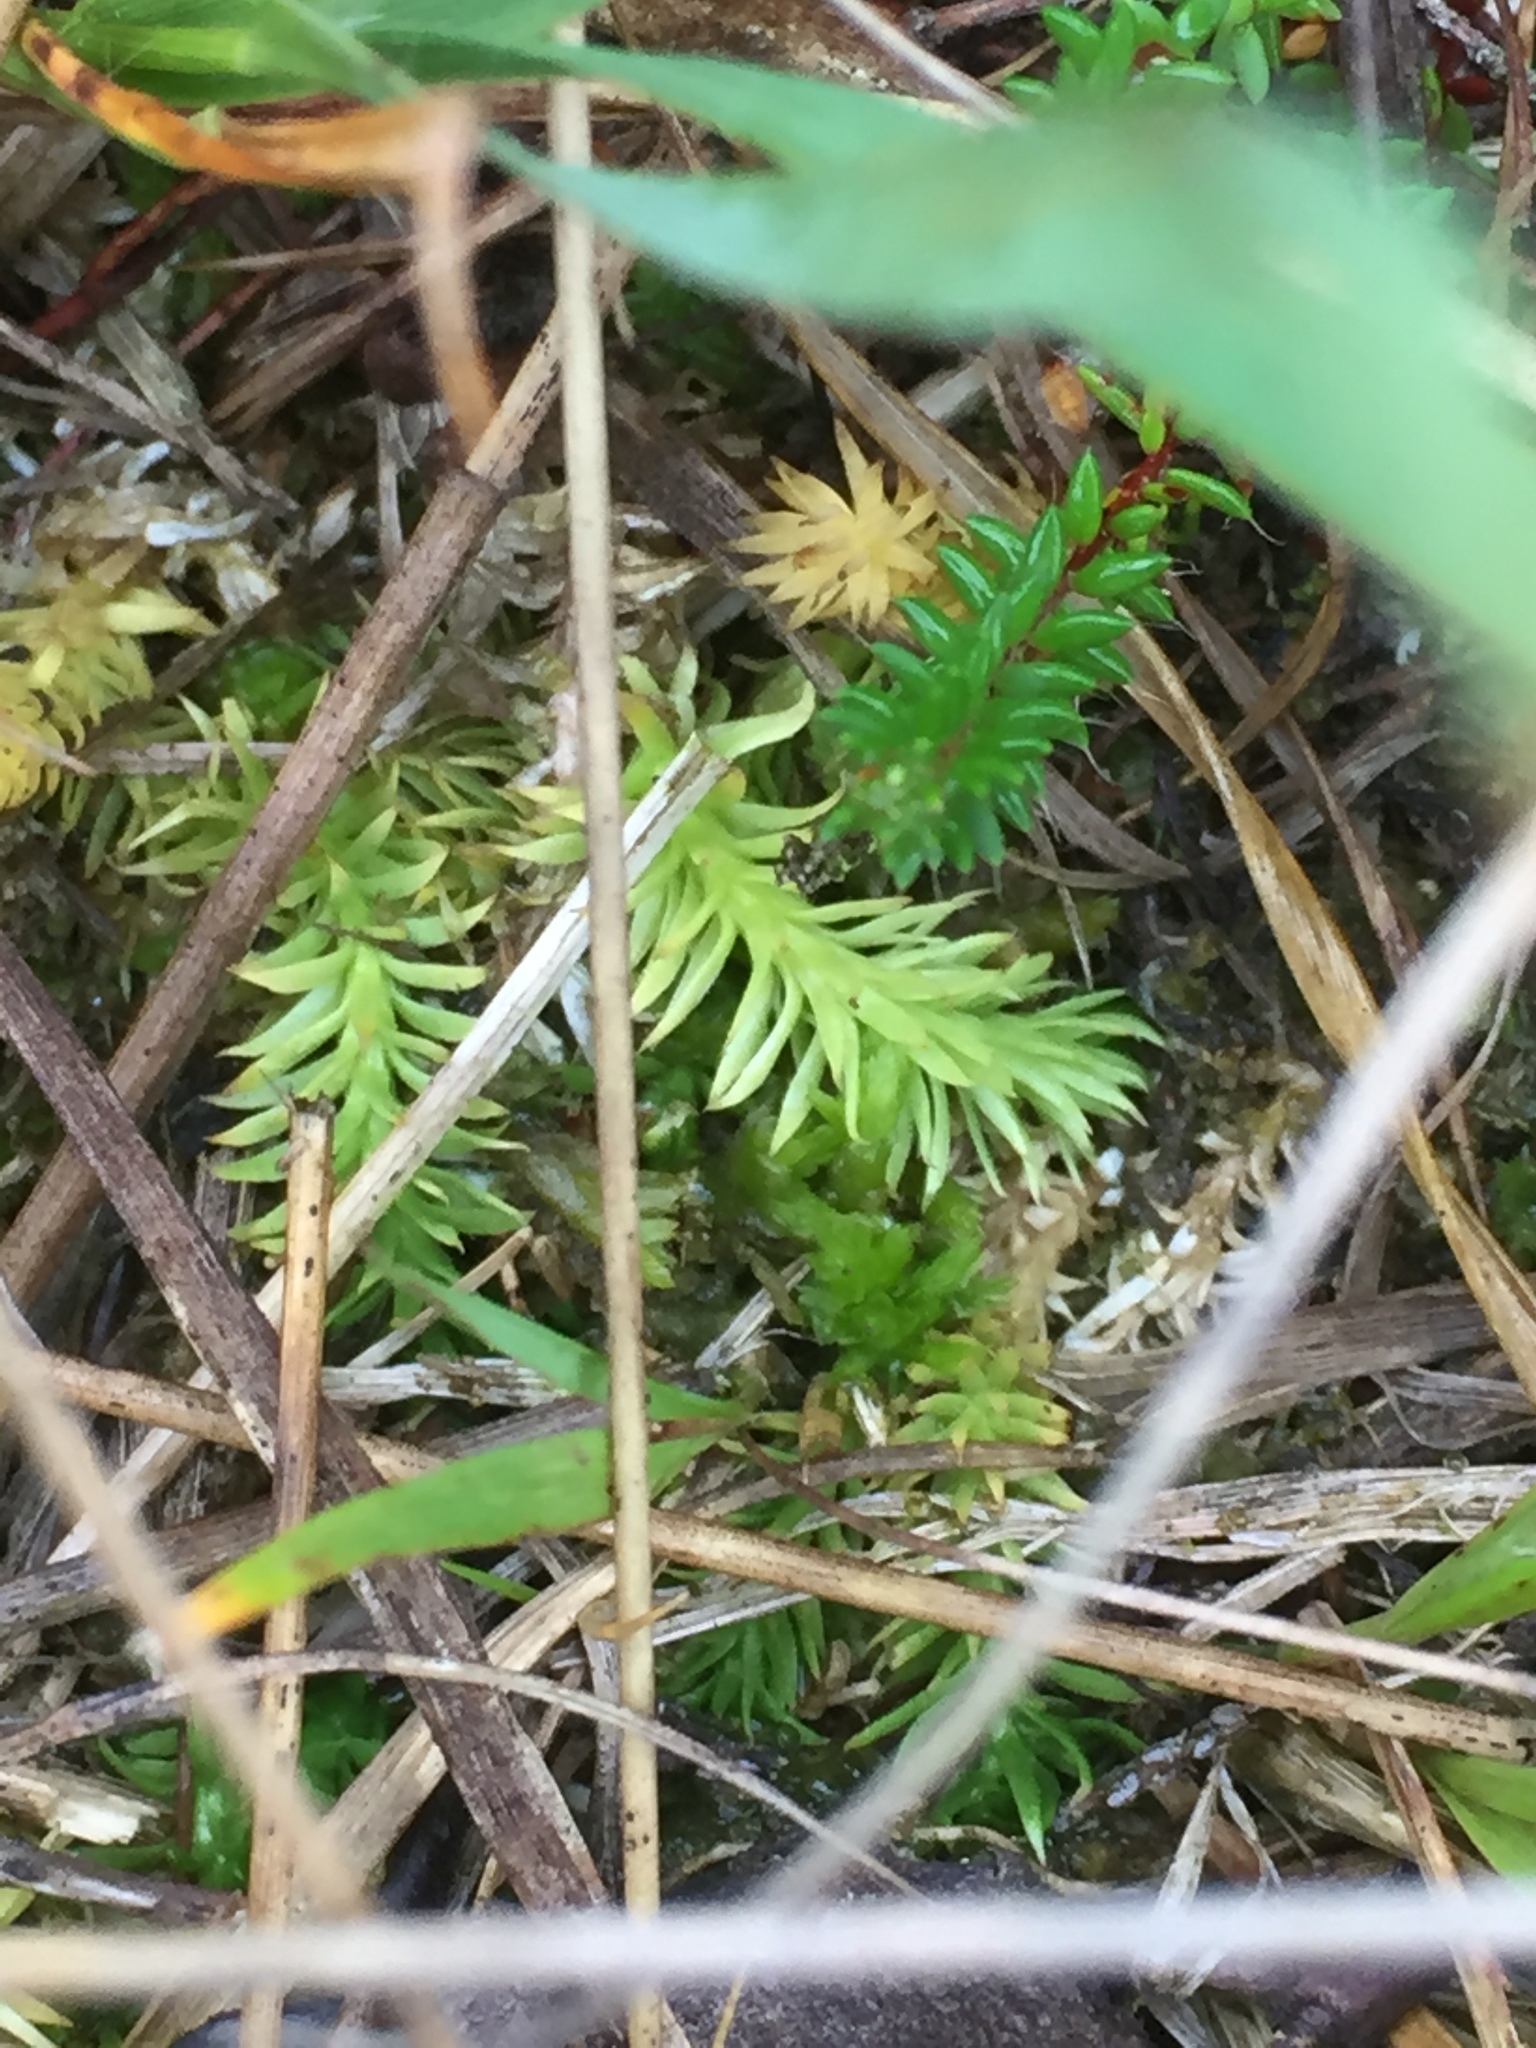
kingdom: Plantae
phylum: Tracheophyta
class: Lycopodiopsida
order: Lycopodiales
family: Lycopodiaceae
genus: Lycopodiella
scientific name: Lycopodiella inundata
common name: Marsh clubmoss
